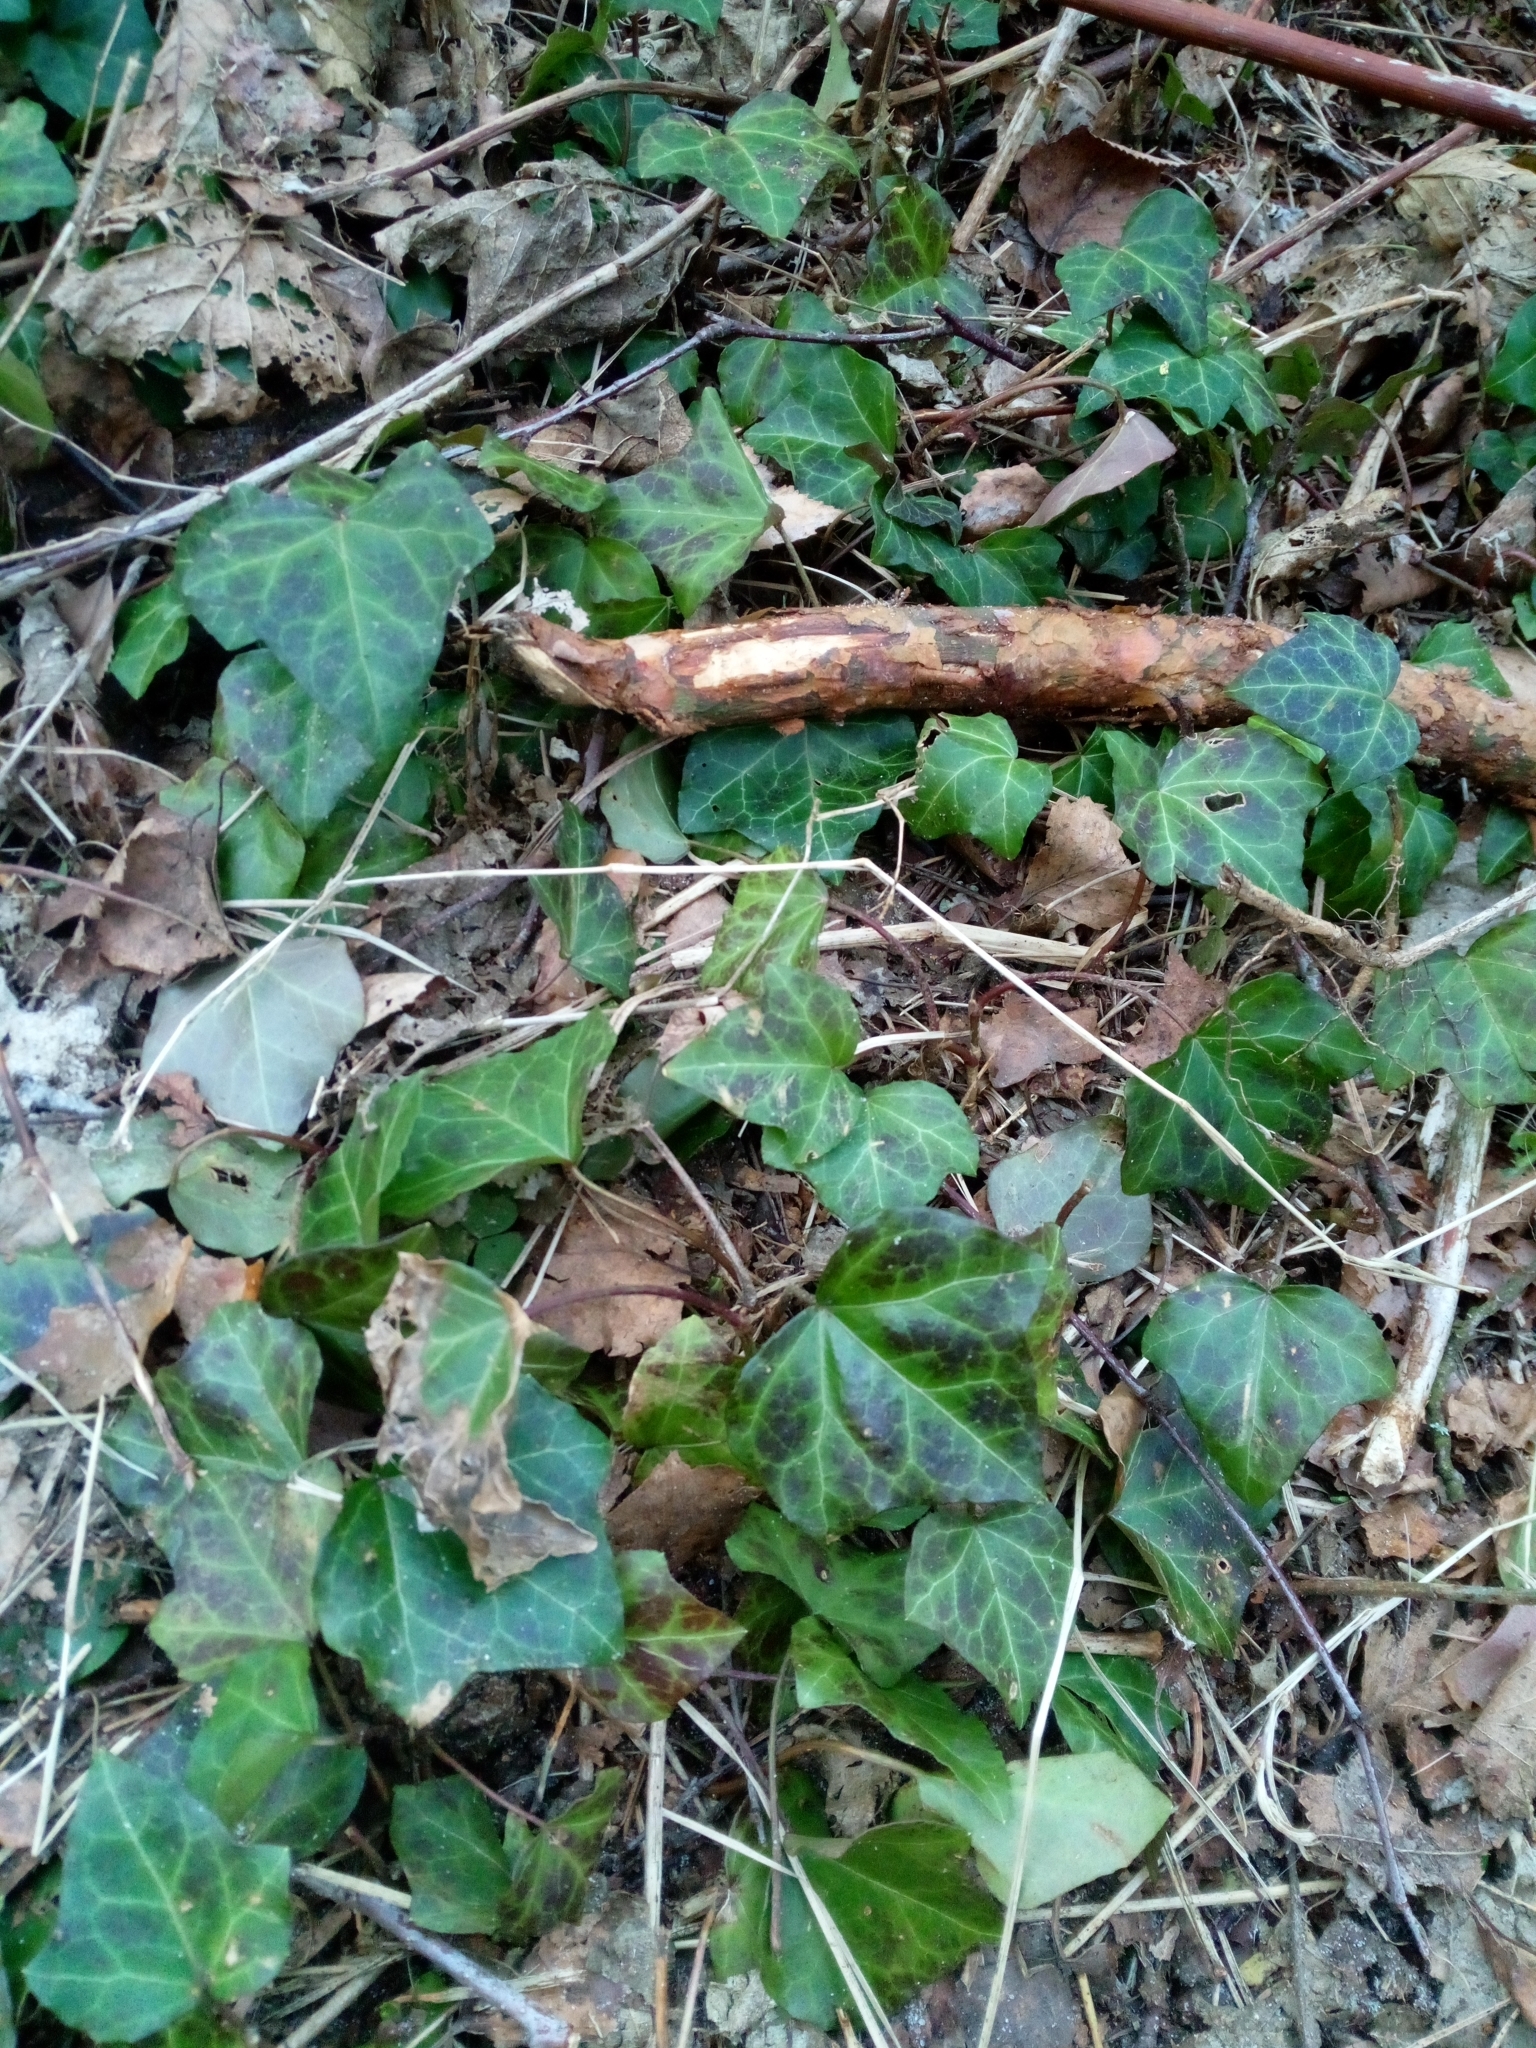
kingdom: Plantae
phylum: Tracheophyta
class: Magnoliopsida
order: Apiales
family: Araliaceae
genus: Hedera
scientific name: Hedera helix
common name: Ivy
